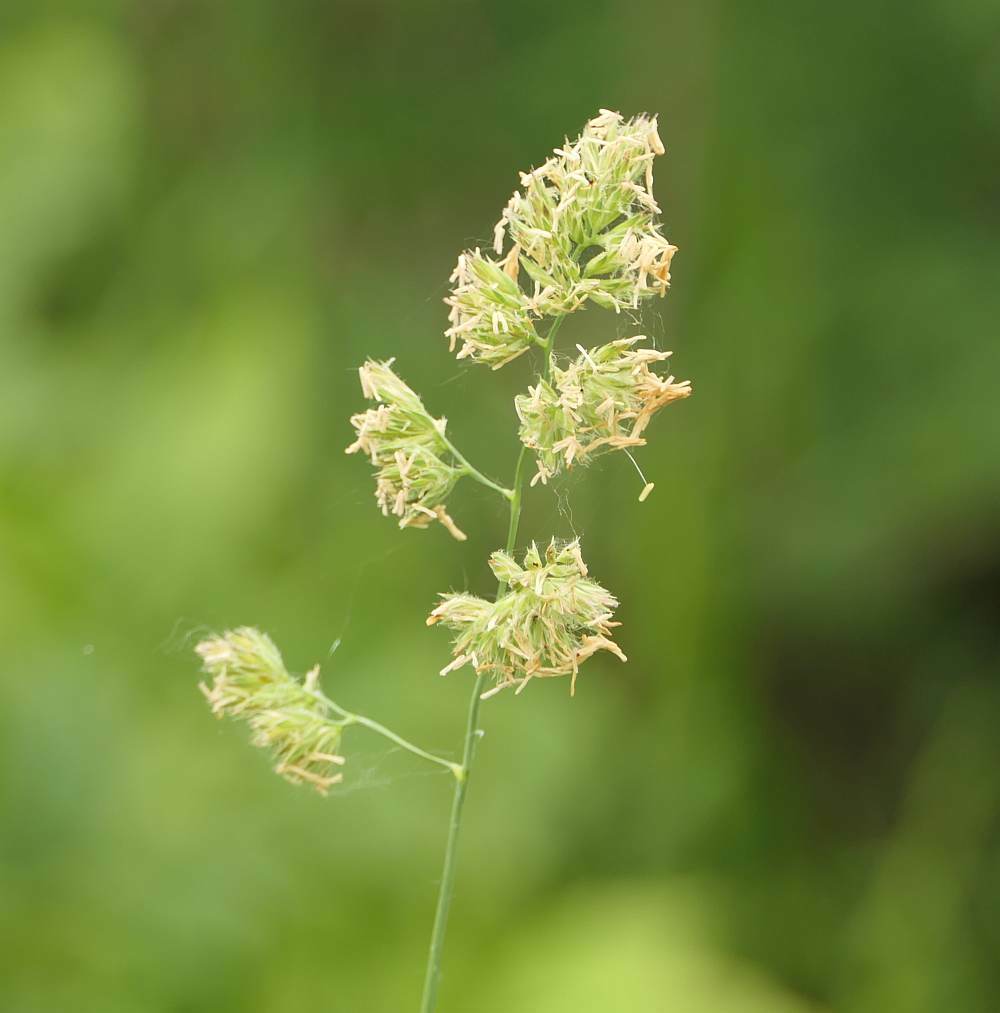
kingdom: Plantae
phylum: Tracheophyta
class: Liliopsida
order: Poales
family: Poaceae
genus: Dactylis
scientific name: Dactylis glomerata
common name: Orchardgrass
